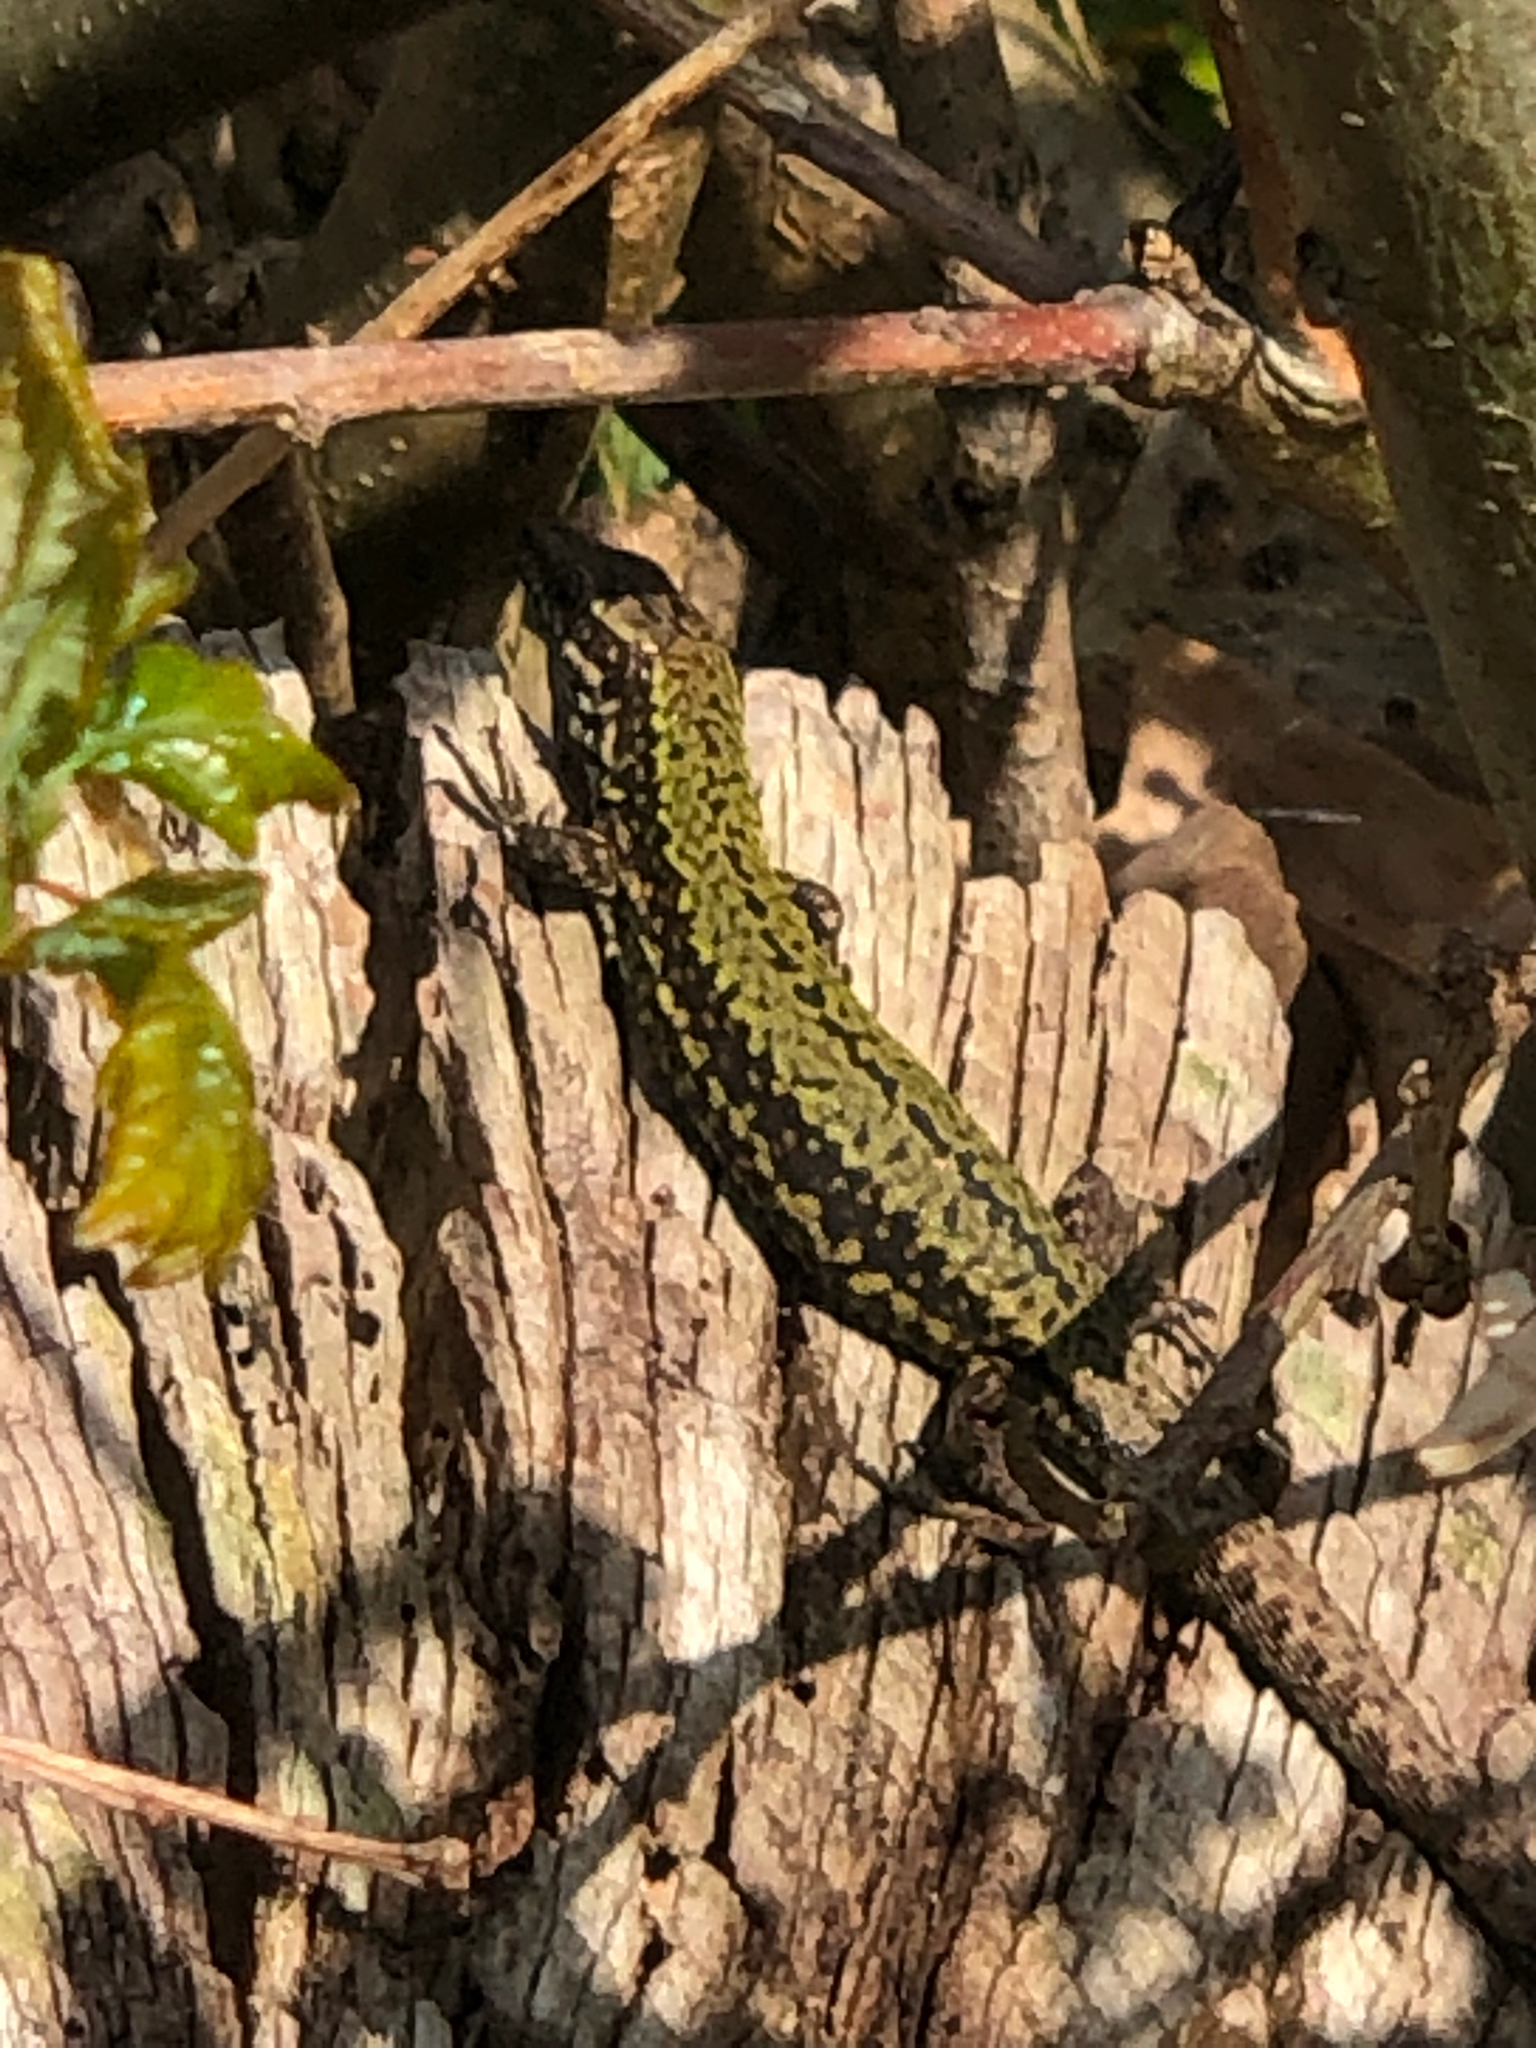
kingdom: Animalia
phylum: Chordata
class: Squamata
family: Lacertidae
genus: Podarcis
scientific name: Podarcis muralis
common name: Common wall lizard
